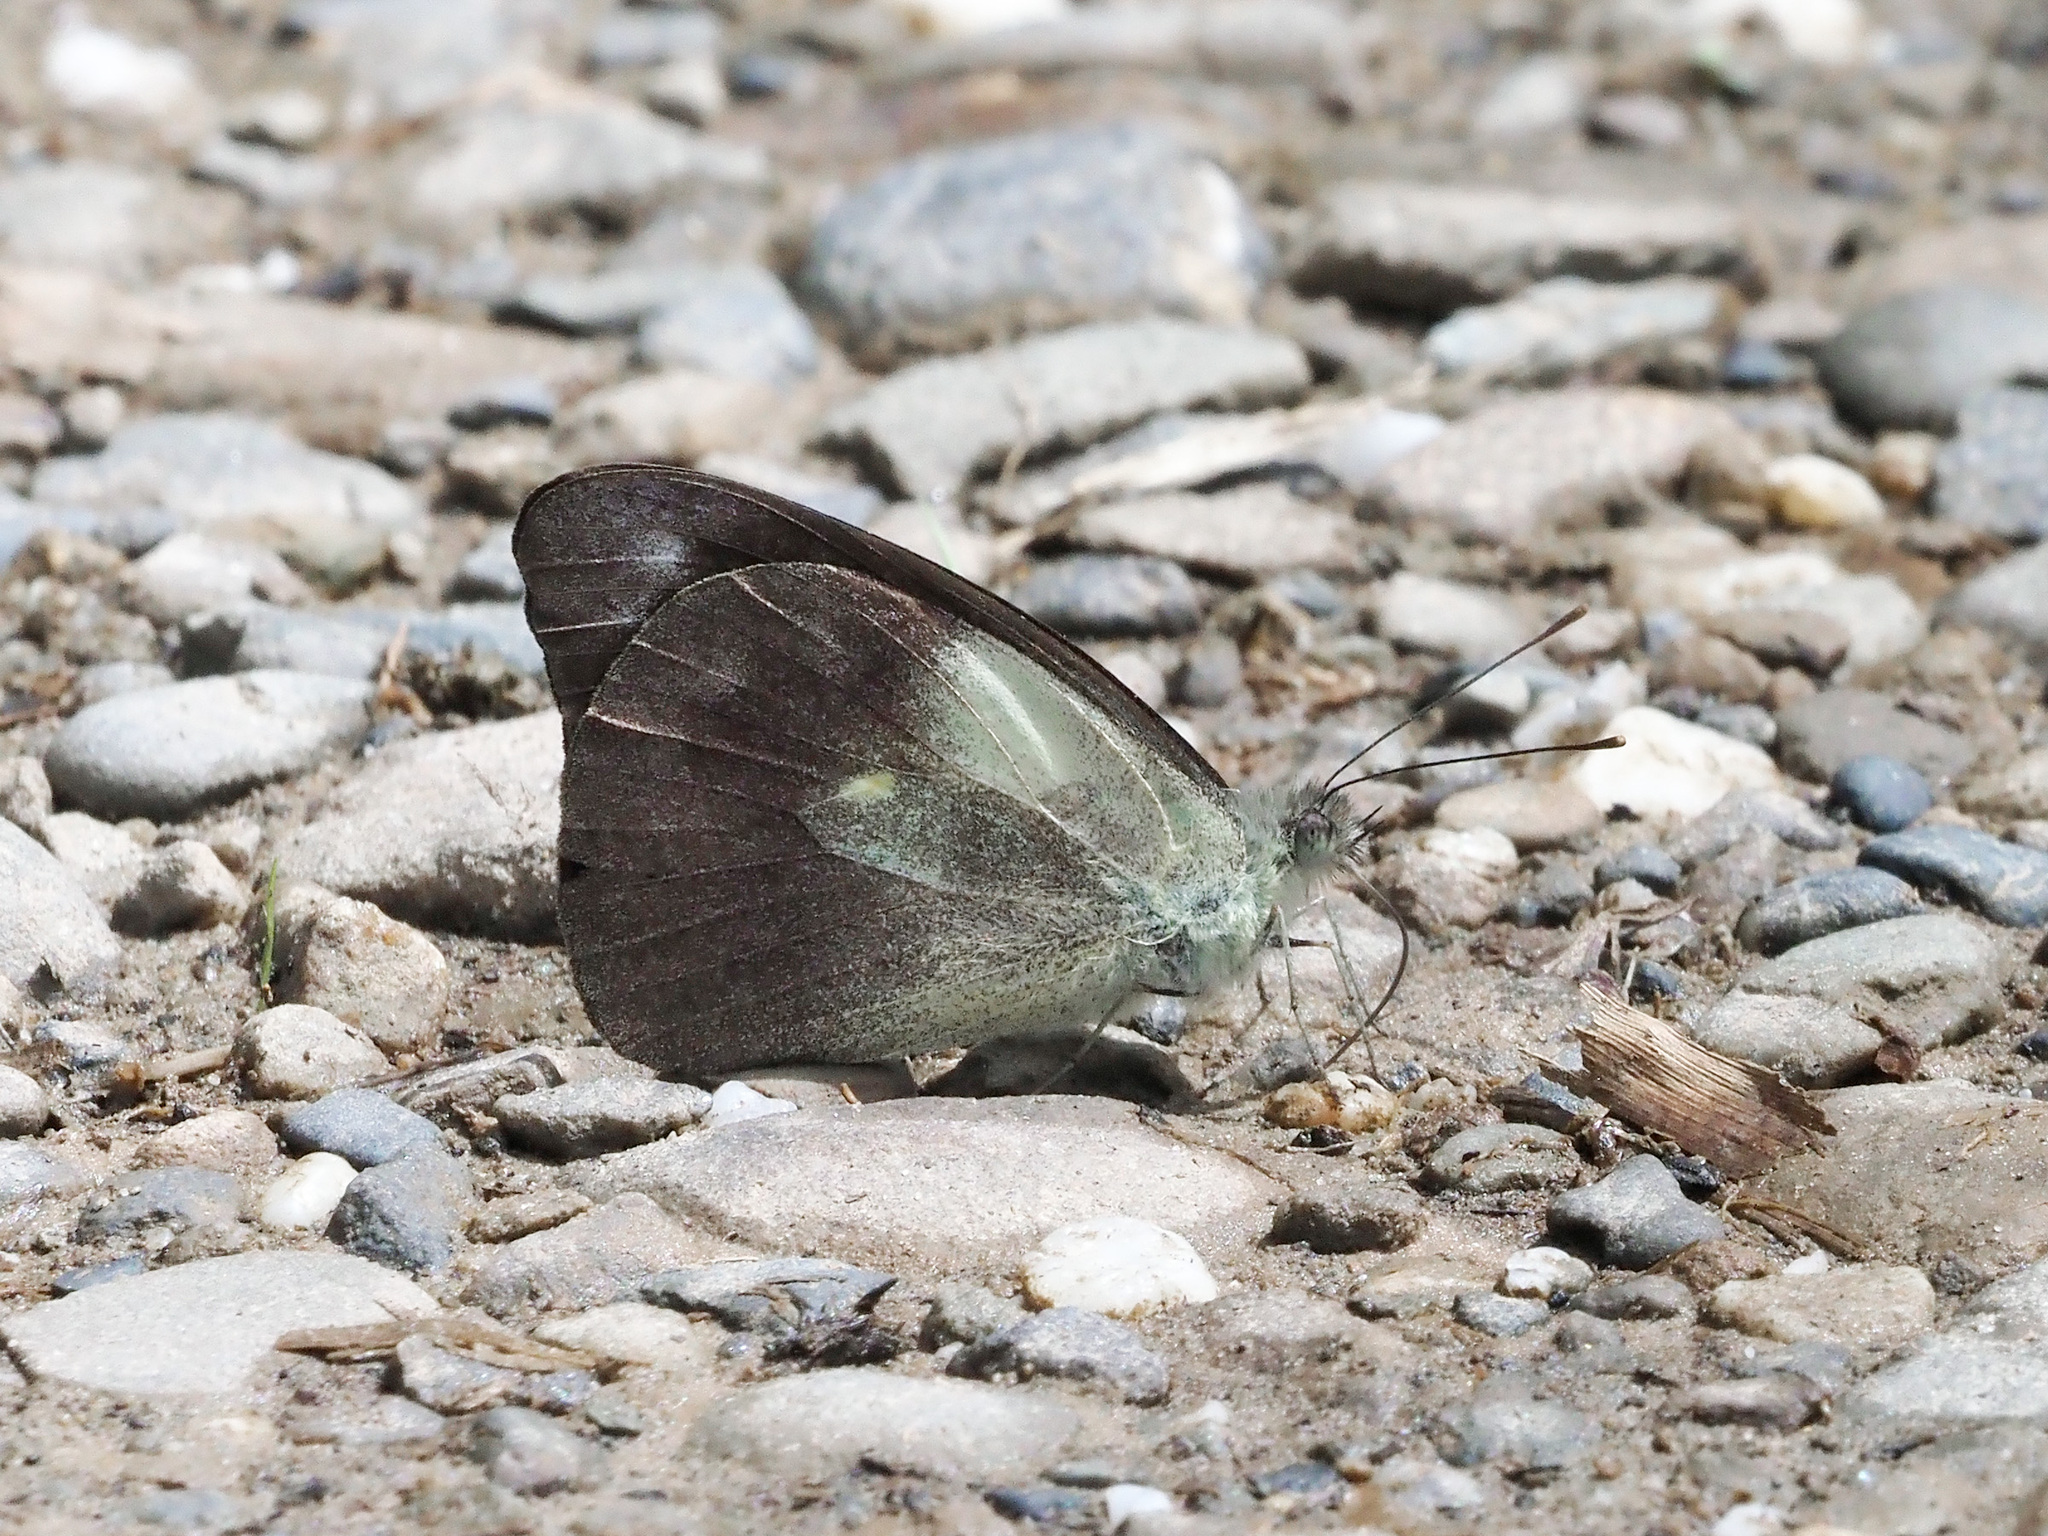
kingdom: Animalia
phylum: Arthropoda
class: Insecta
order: Lepidoptera
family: Pieridae
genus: Appias
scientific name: Appias pandione
